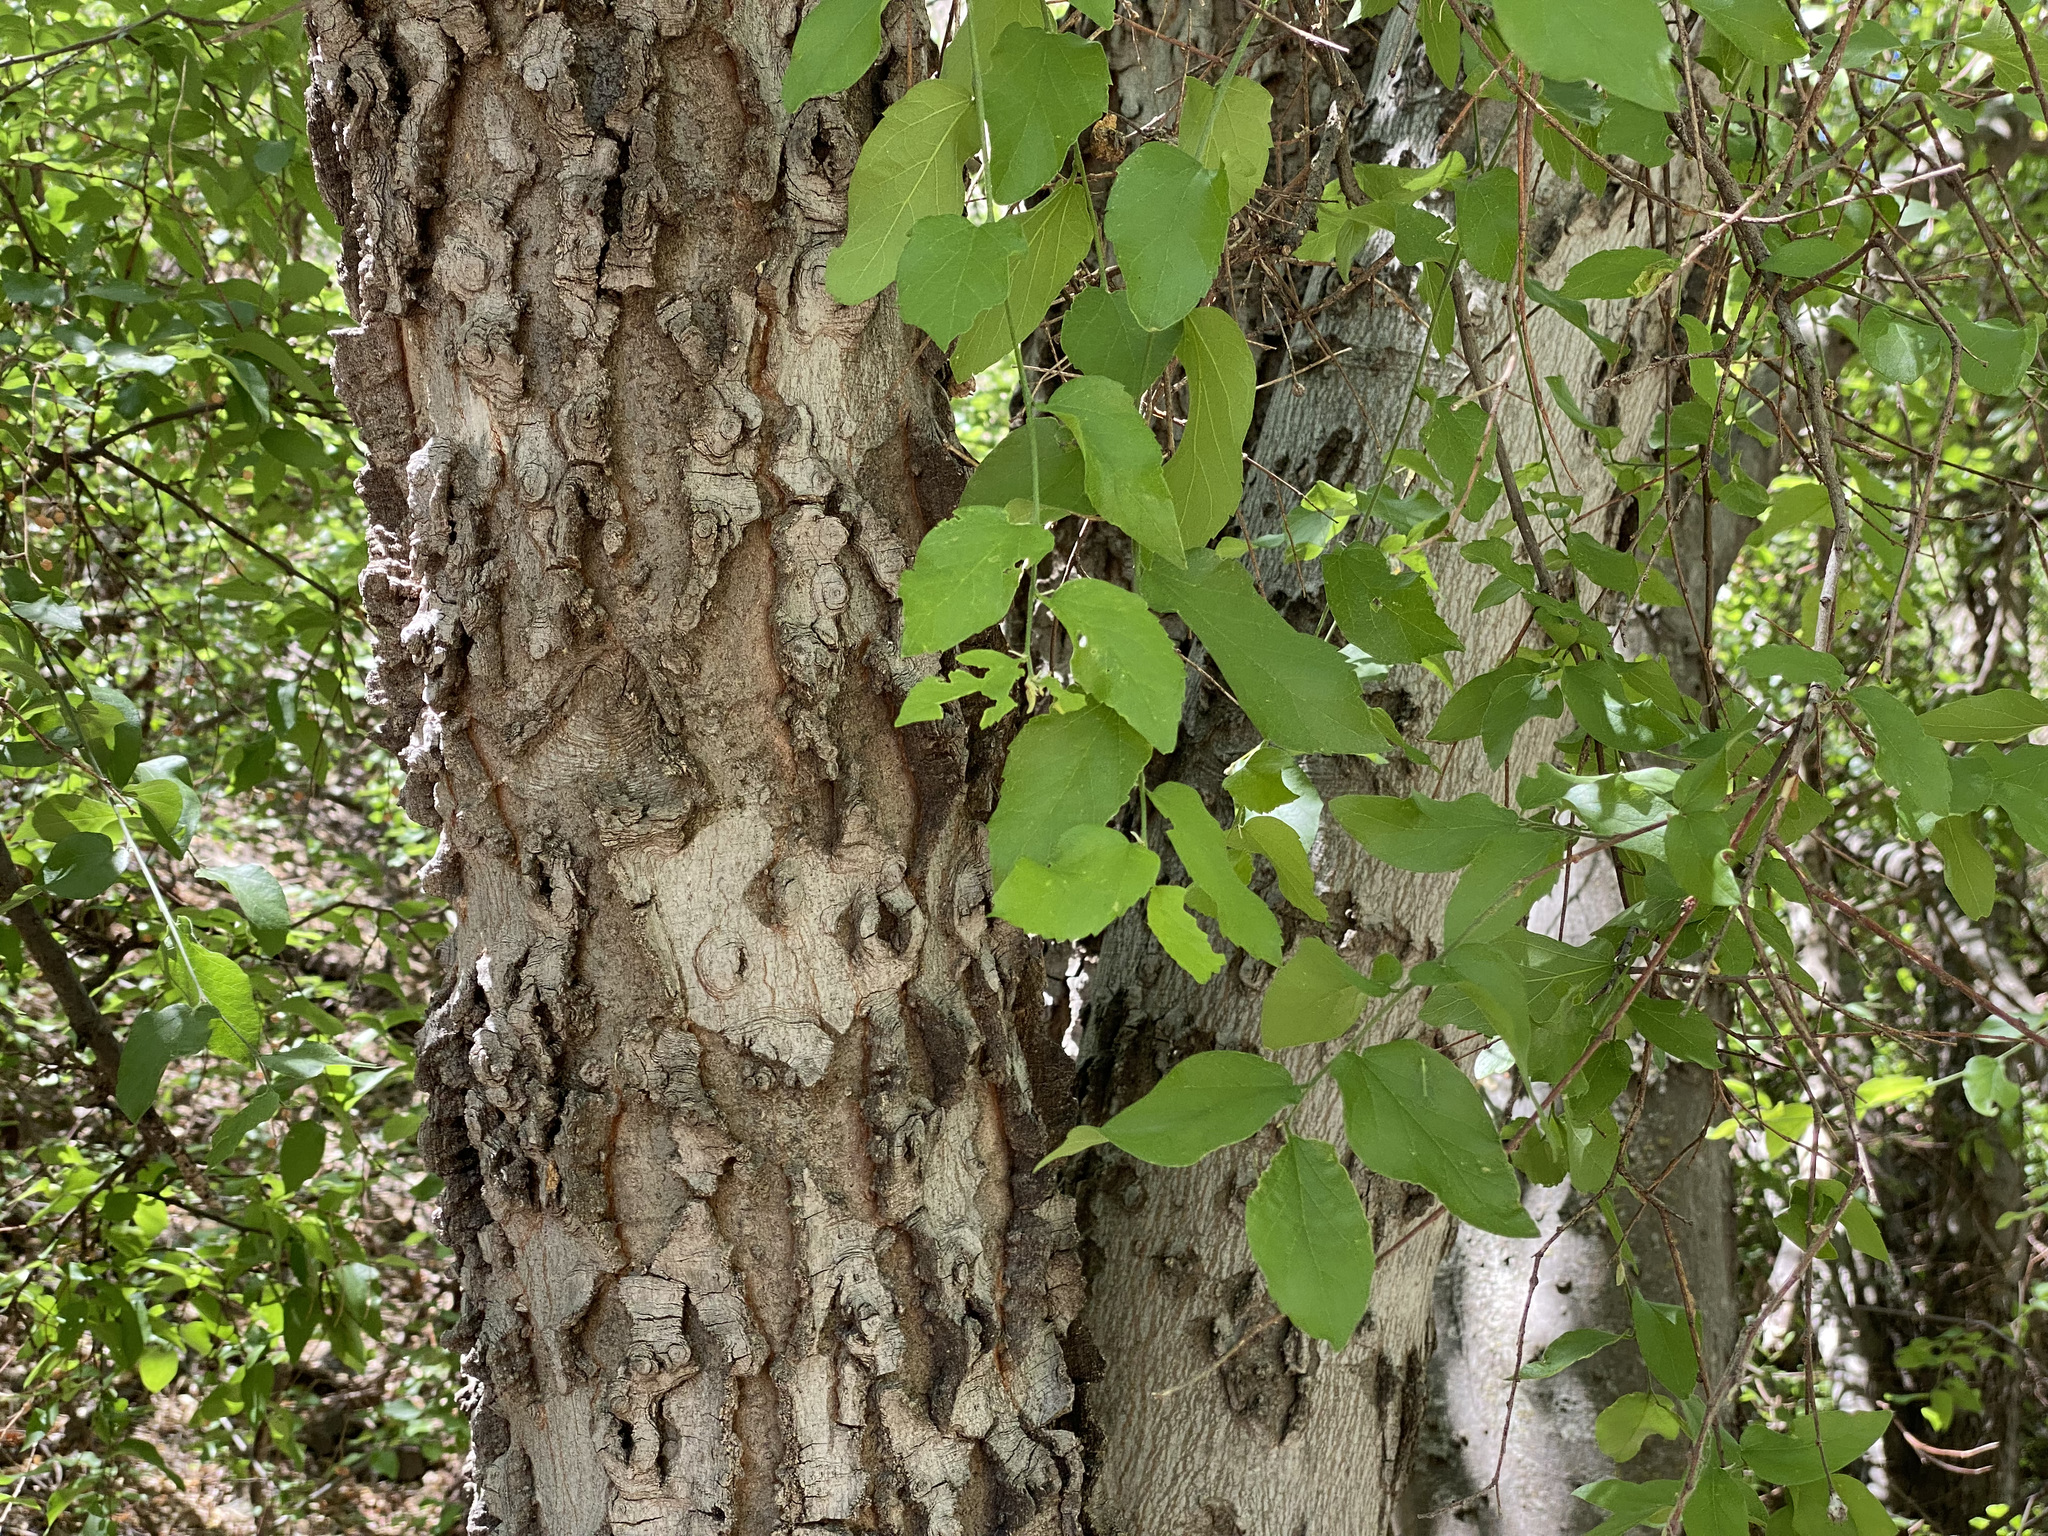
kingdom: Plantae
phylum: Tracheophyta
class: Magnoliopsida
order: Rosales
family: Cannabaceae
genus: Celtis
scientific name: Celtis reticulata
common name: Netleaf hackberry
